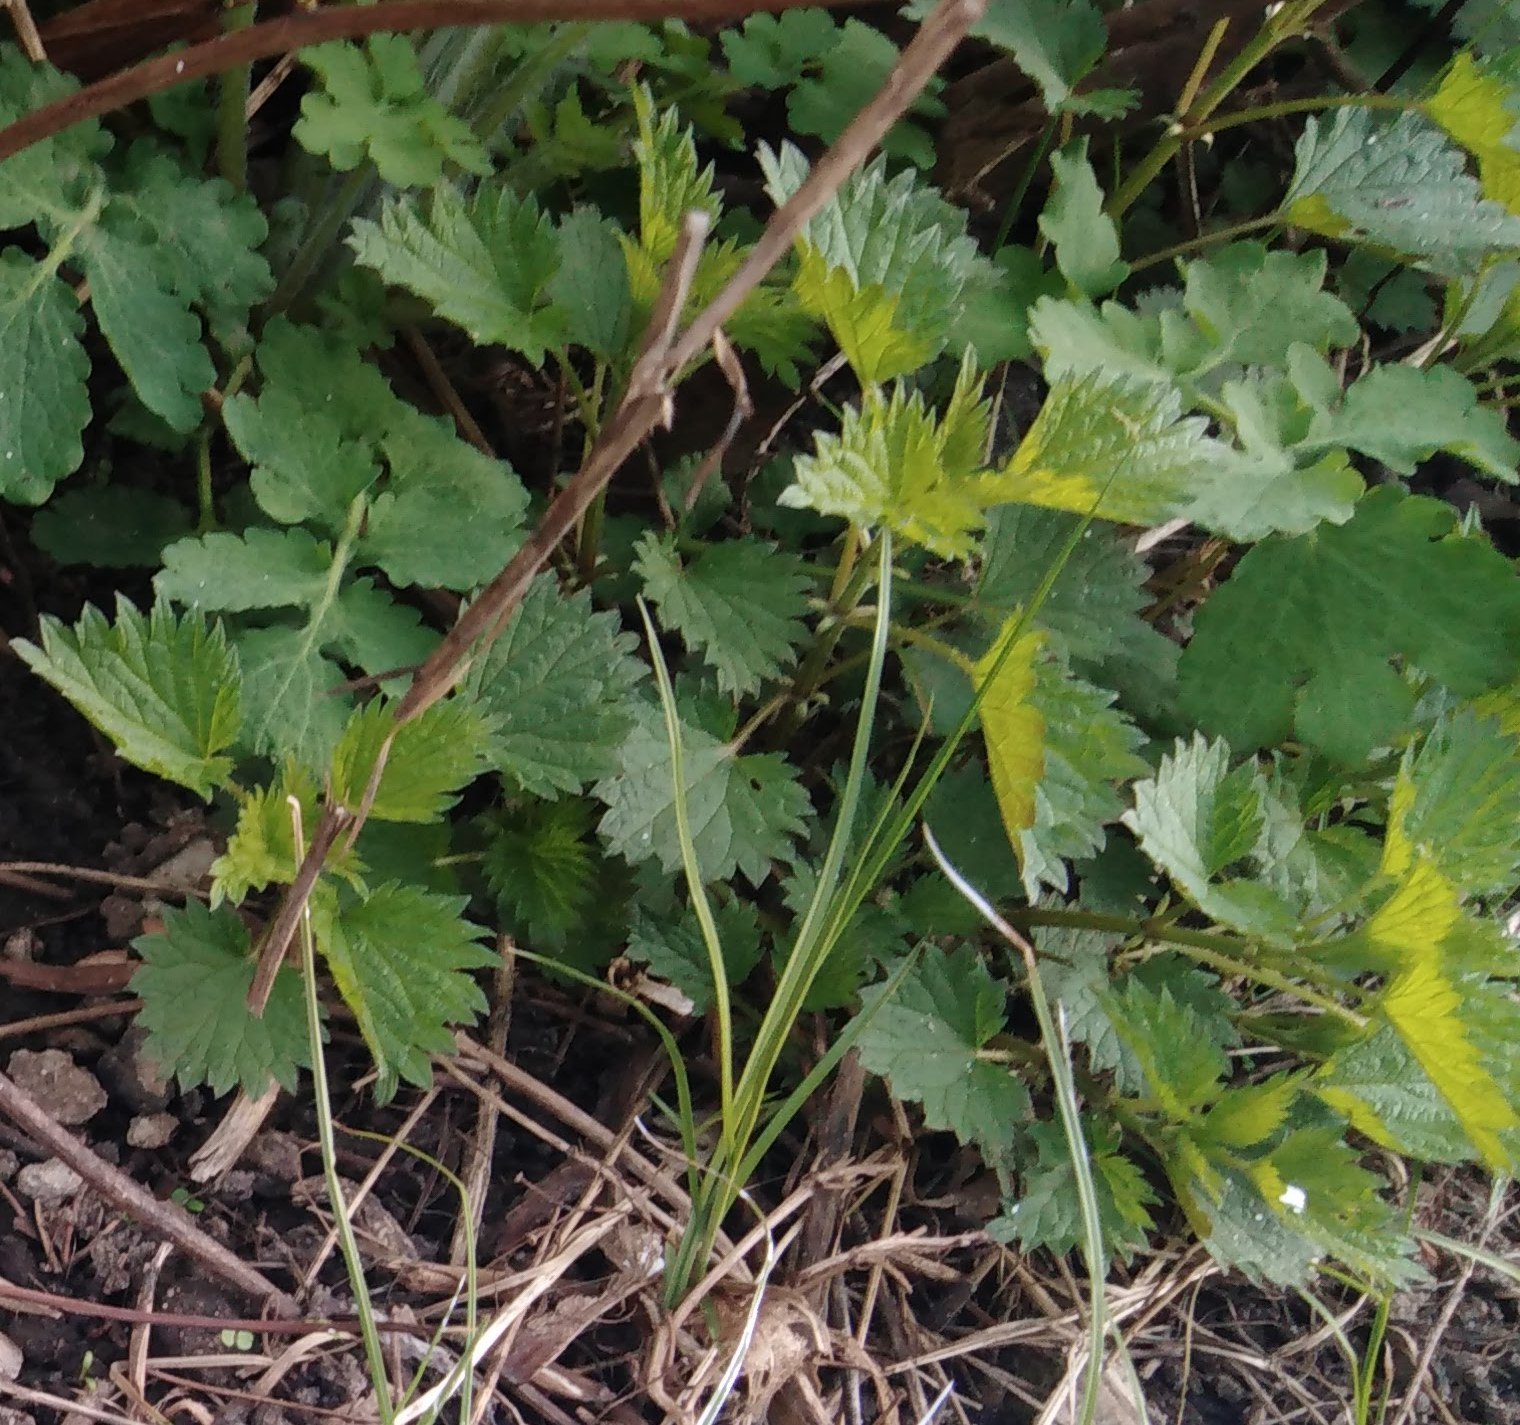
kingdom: Plantae
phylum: Tracheophyta
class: Magnoliopsida
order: Rosales
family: Urticaceae
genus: Urtica
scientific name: Urtica dioica
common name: Common nettle
